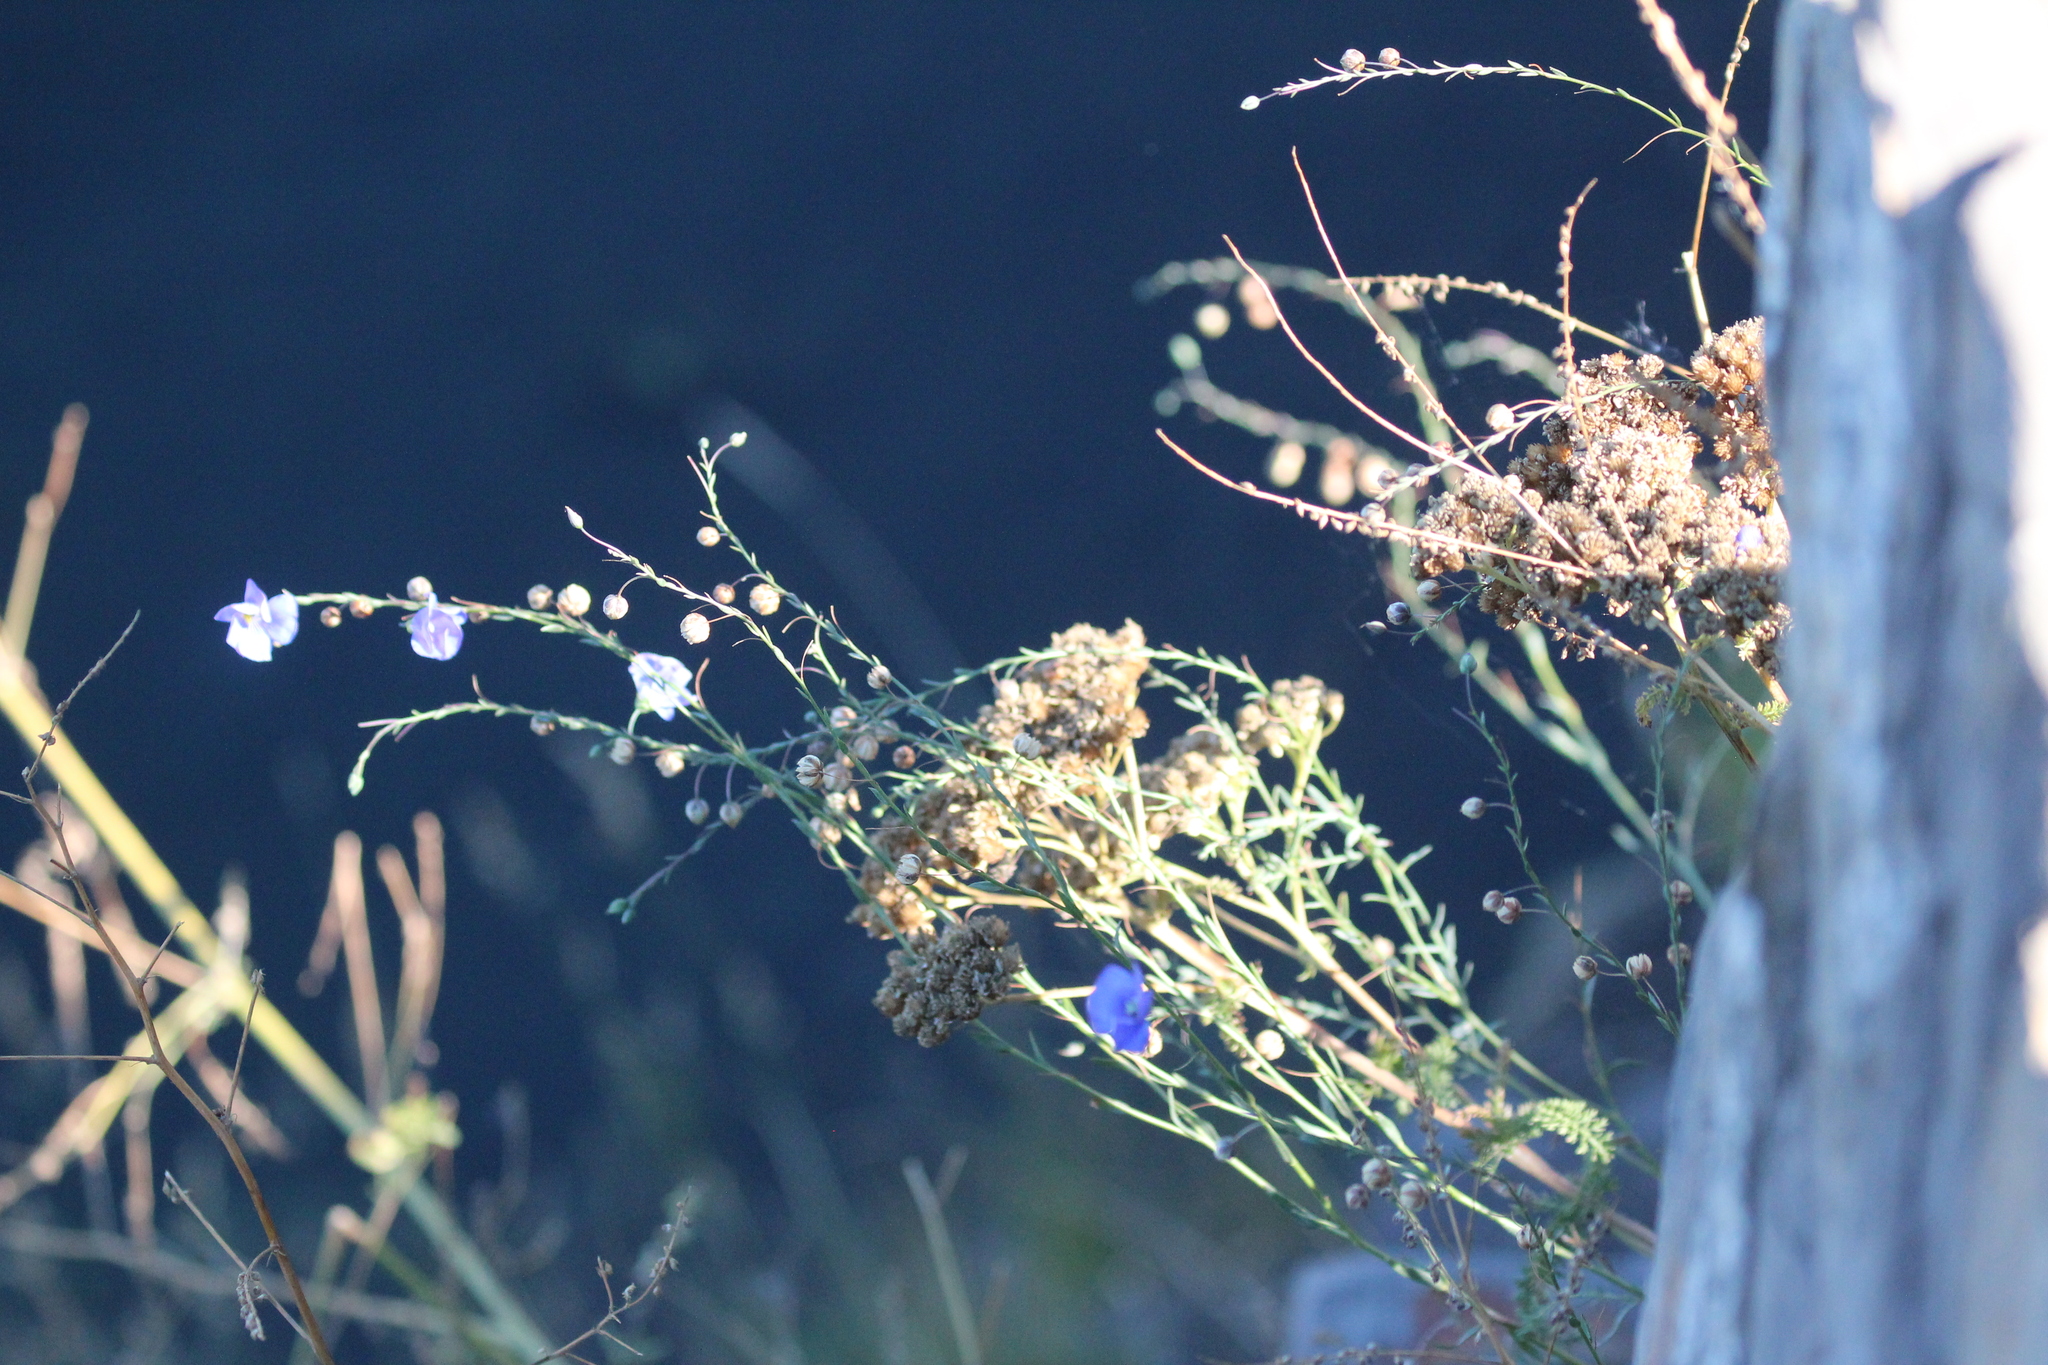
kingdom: Plantae
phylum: Tracheophyta
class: Magnoliopsida
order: Malpighiales
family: Linaceae
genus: Linum
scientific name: Linum lewisii
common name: Prairie flax
